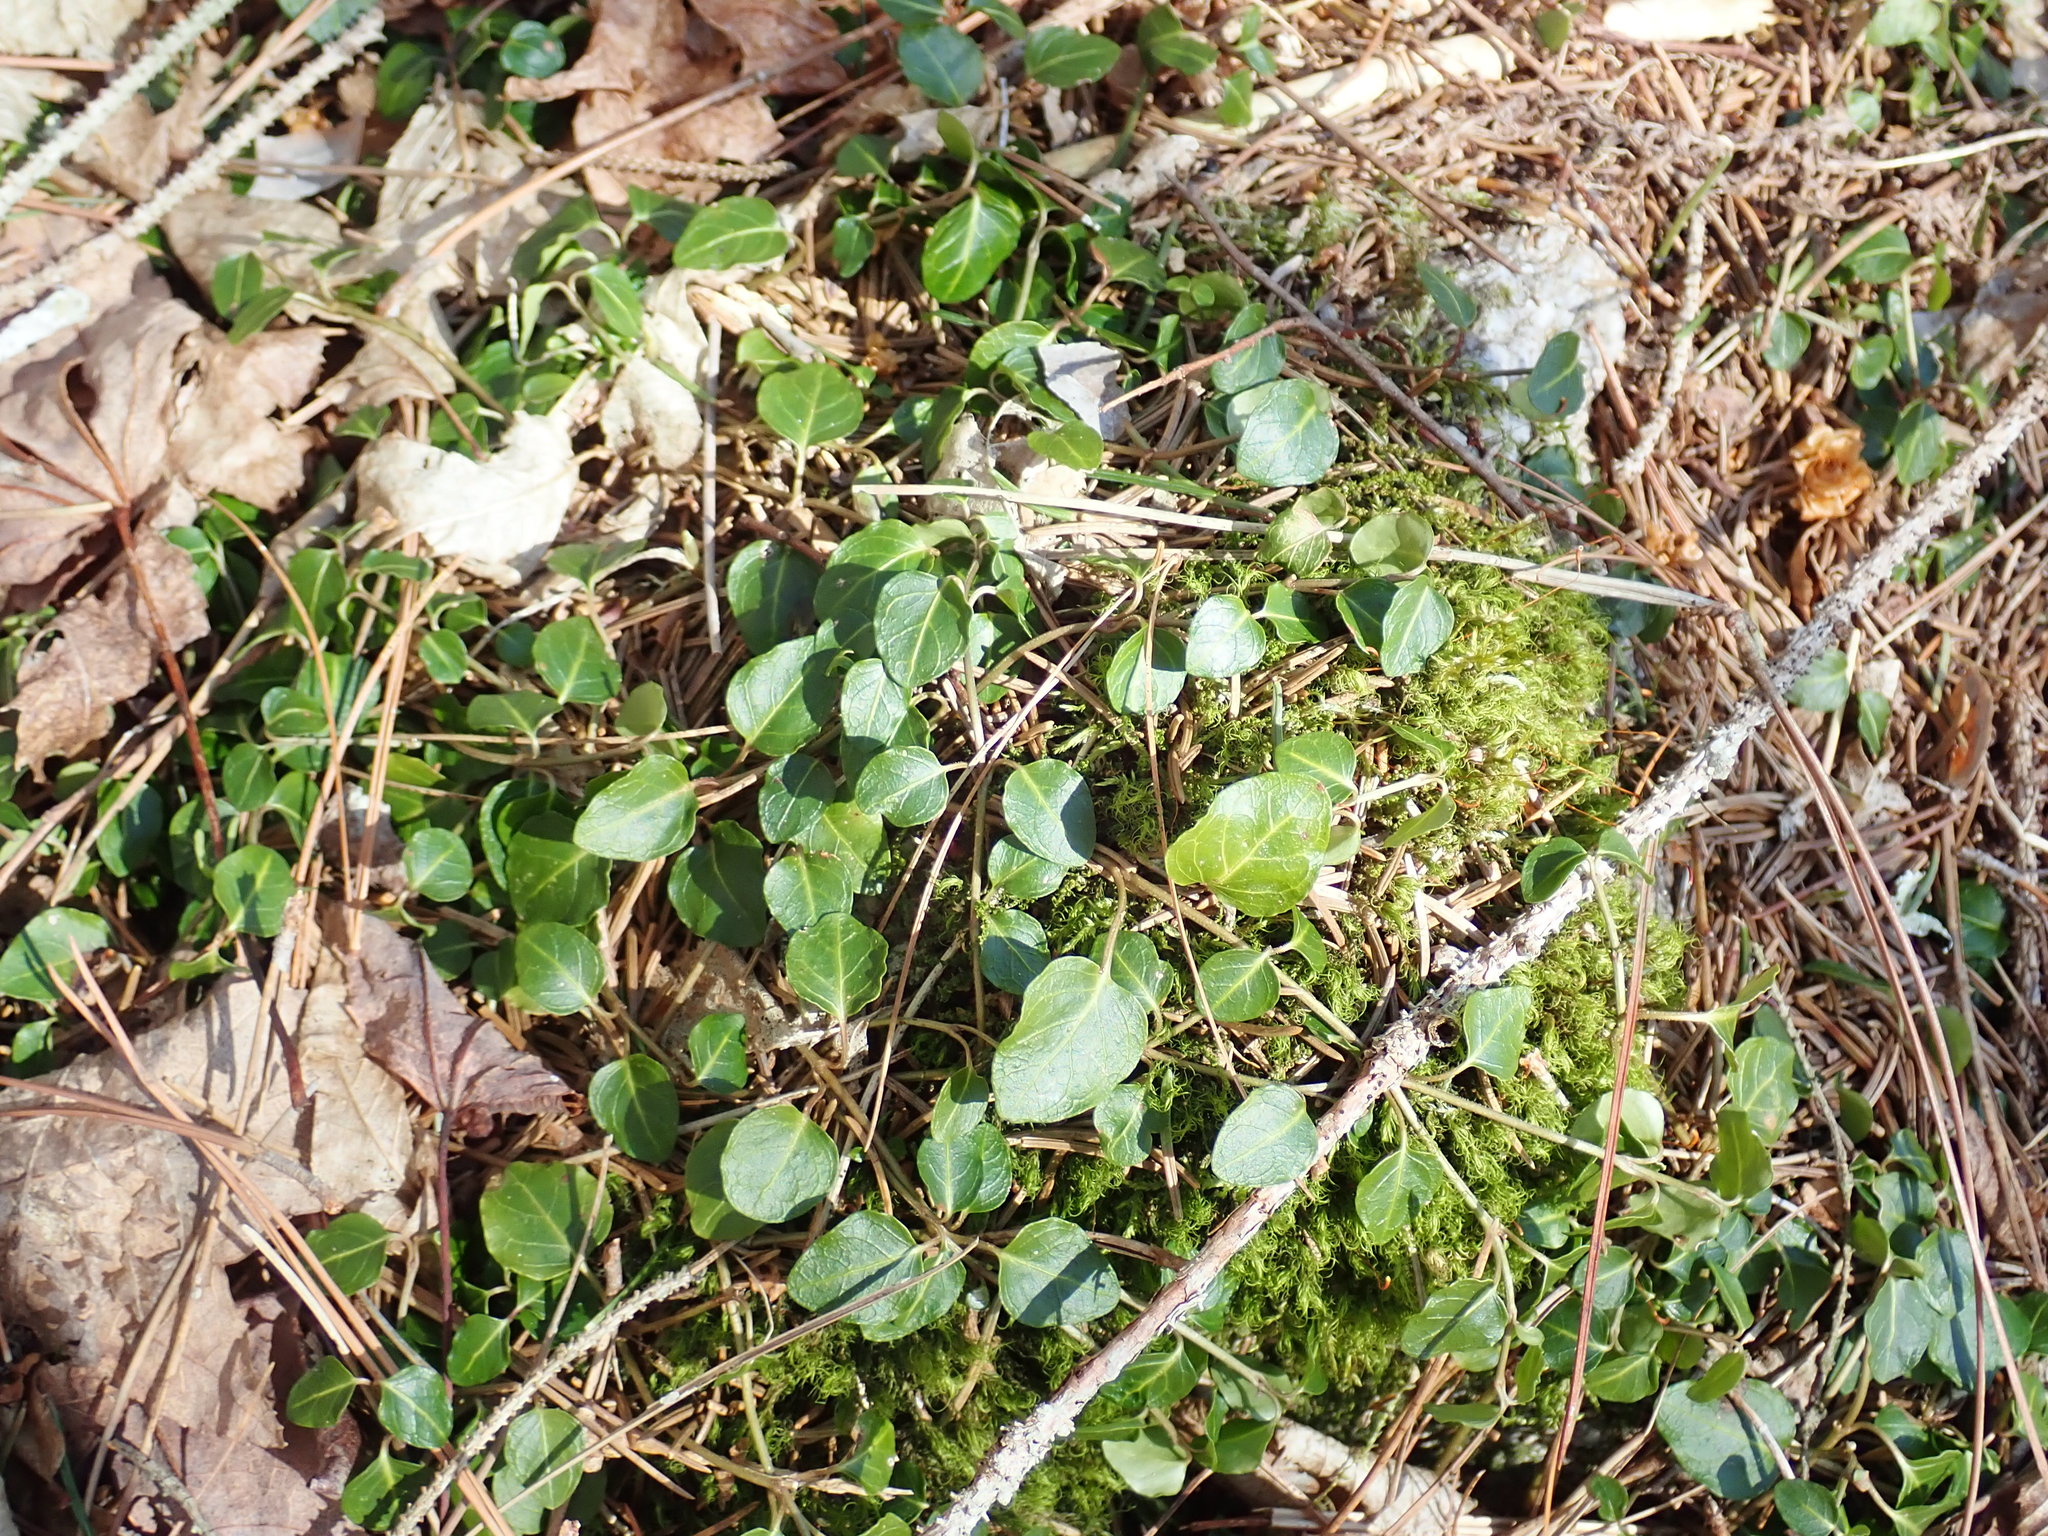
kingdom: Plantae
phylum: Tracheophyta
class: Magnoliopsida
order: Gentianales
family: Rubiaceae
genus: Mitchella
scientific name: Mitchella repens
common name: Partridge-berry
